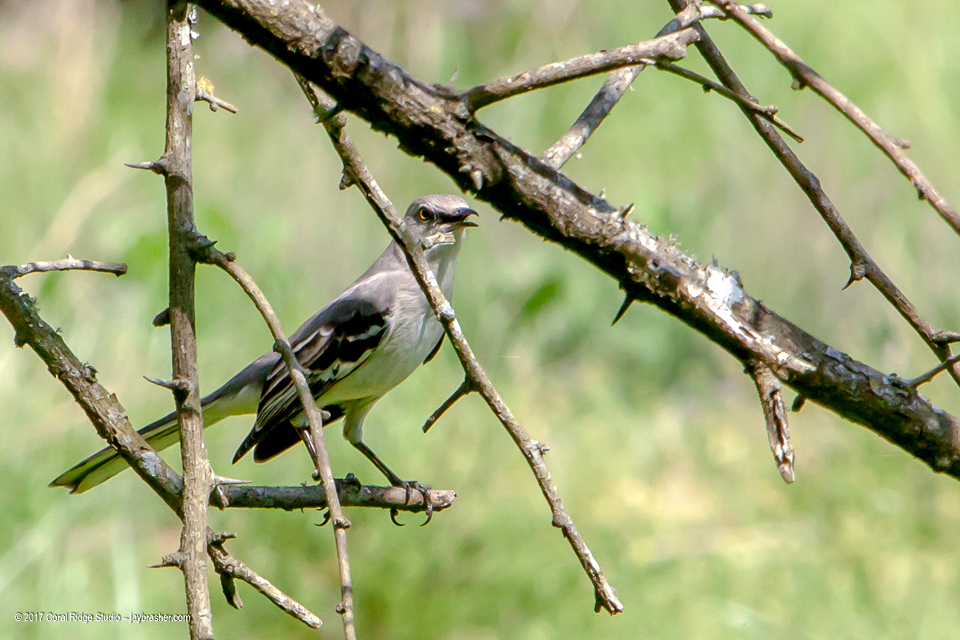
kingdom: Animalia
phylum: Chordata
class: Aves
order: Passeriformes
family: Mimidae
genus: Mimus
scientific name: Mimus polyglottos
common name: Northern mockingbird
